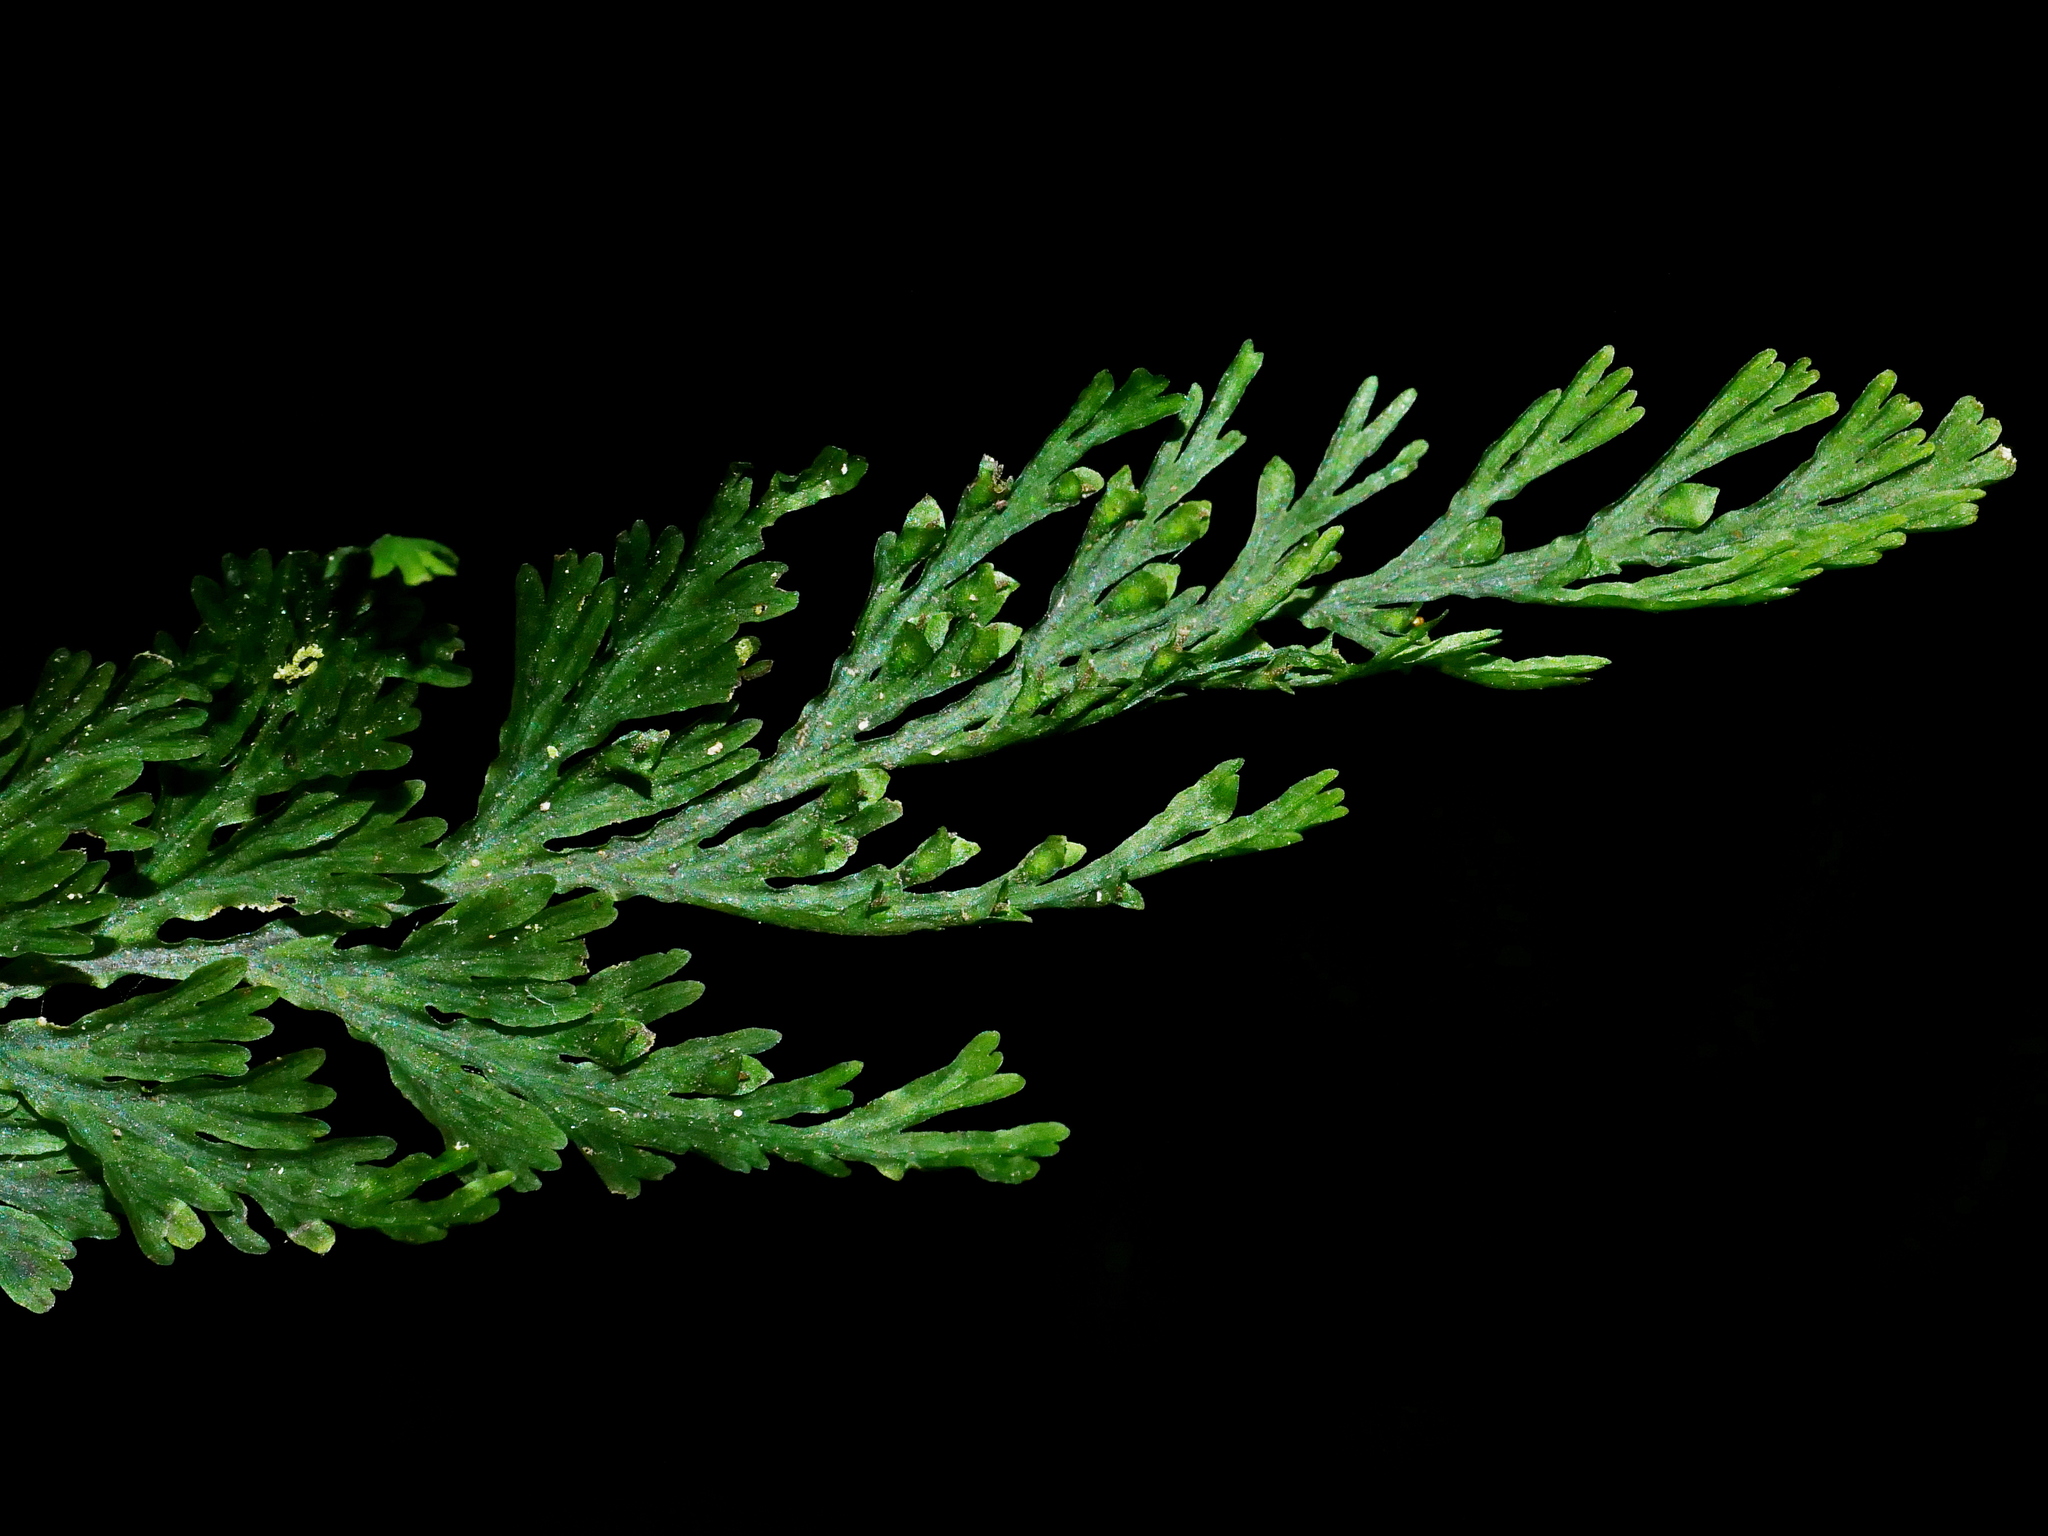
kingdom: Plantae
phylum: Tracheophyta
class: Polypodiopsida
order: Hymenophyllales
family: Hymenophyllaceae
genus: Crepidomanes
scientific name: Crepidomanes latealatum
